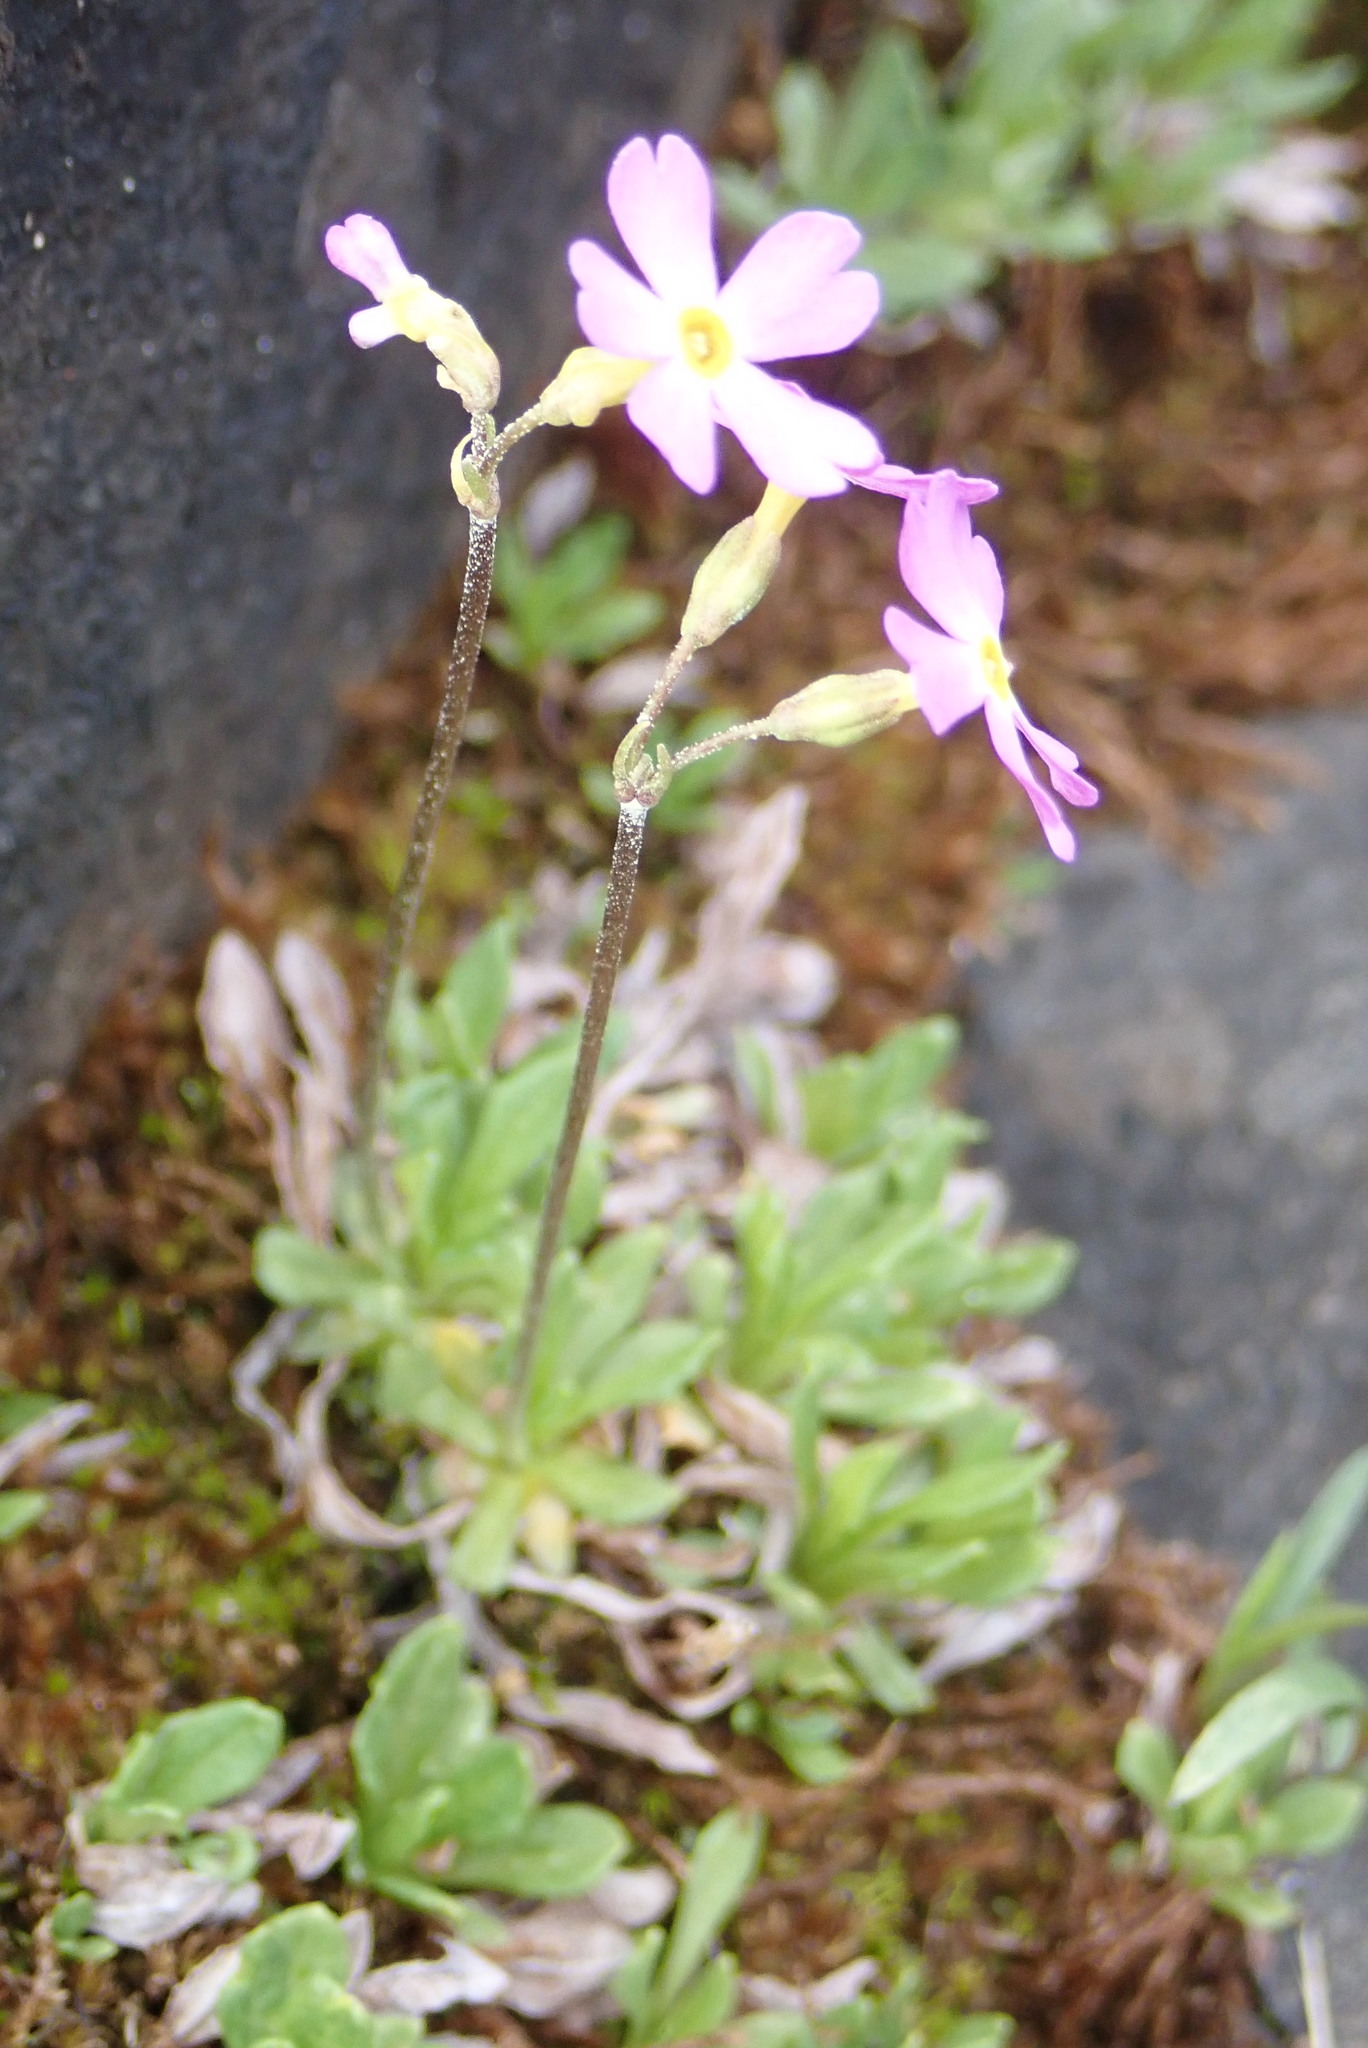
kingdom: Plantae
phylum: Tracheophyta
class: Magnoliopsida
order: Ericales
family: Primulaceae
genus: Primula
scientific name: Primula mistassinica
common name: Bird's-eye primrose
